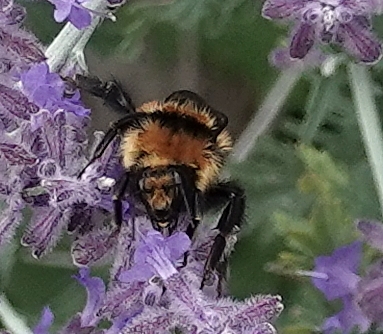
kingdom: Animalia
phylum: Arthropoda
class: Insecta
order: Hymenoptera
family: Apidae
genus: Bombus
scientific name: Bombus huntii
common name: Hunt bumble bee
